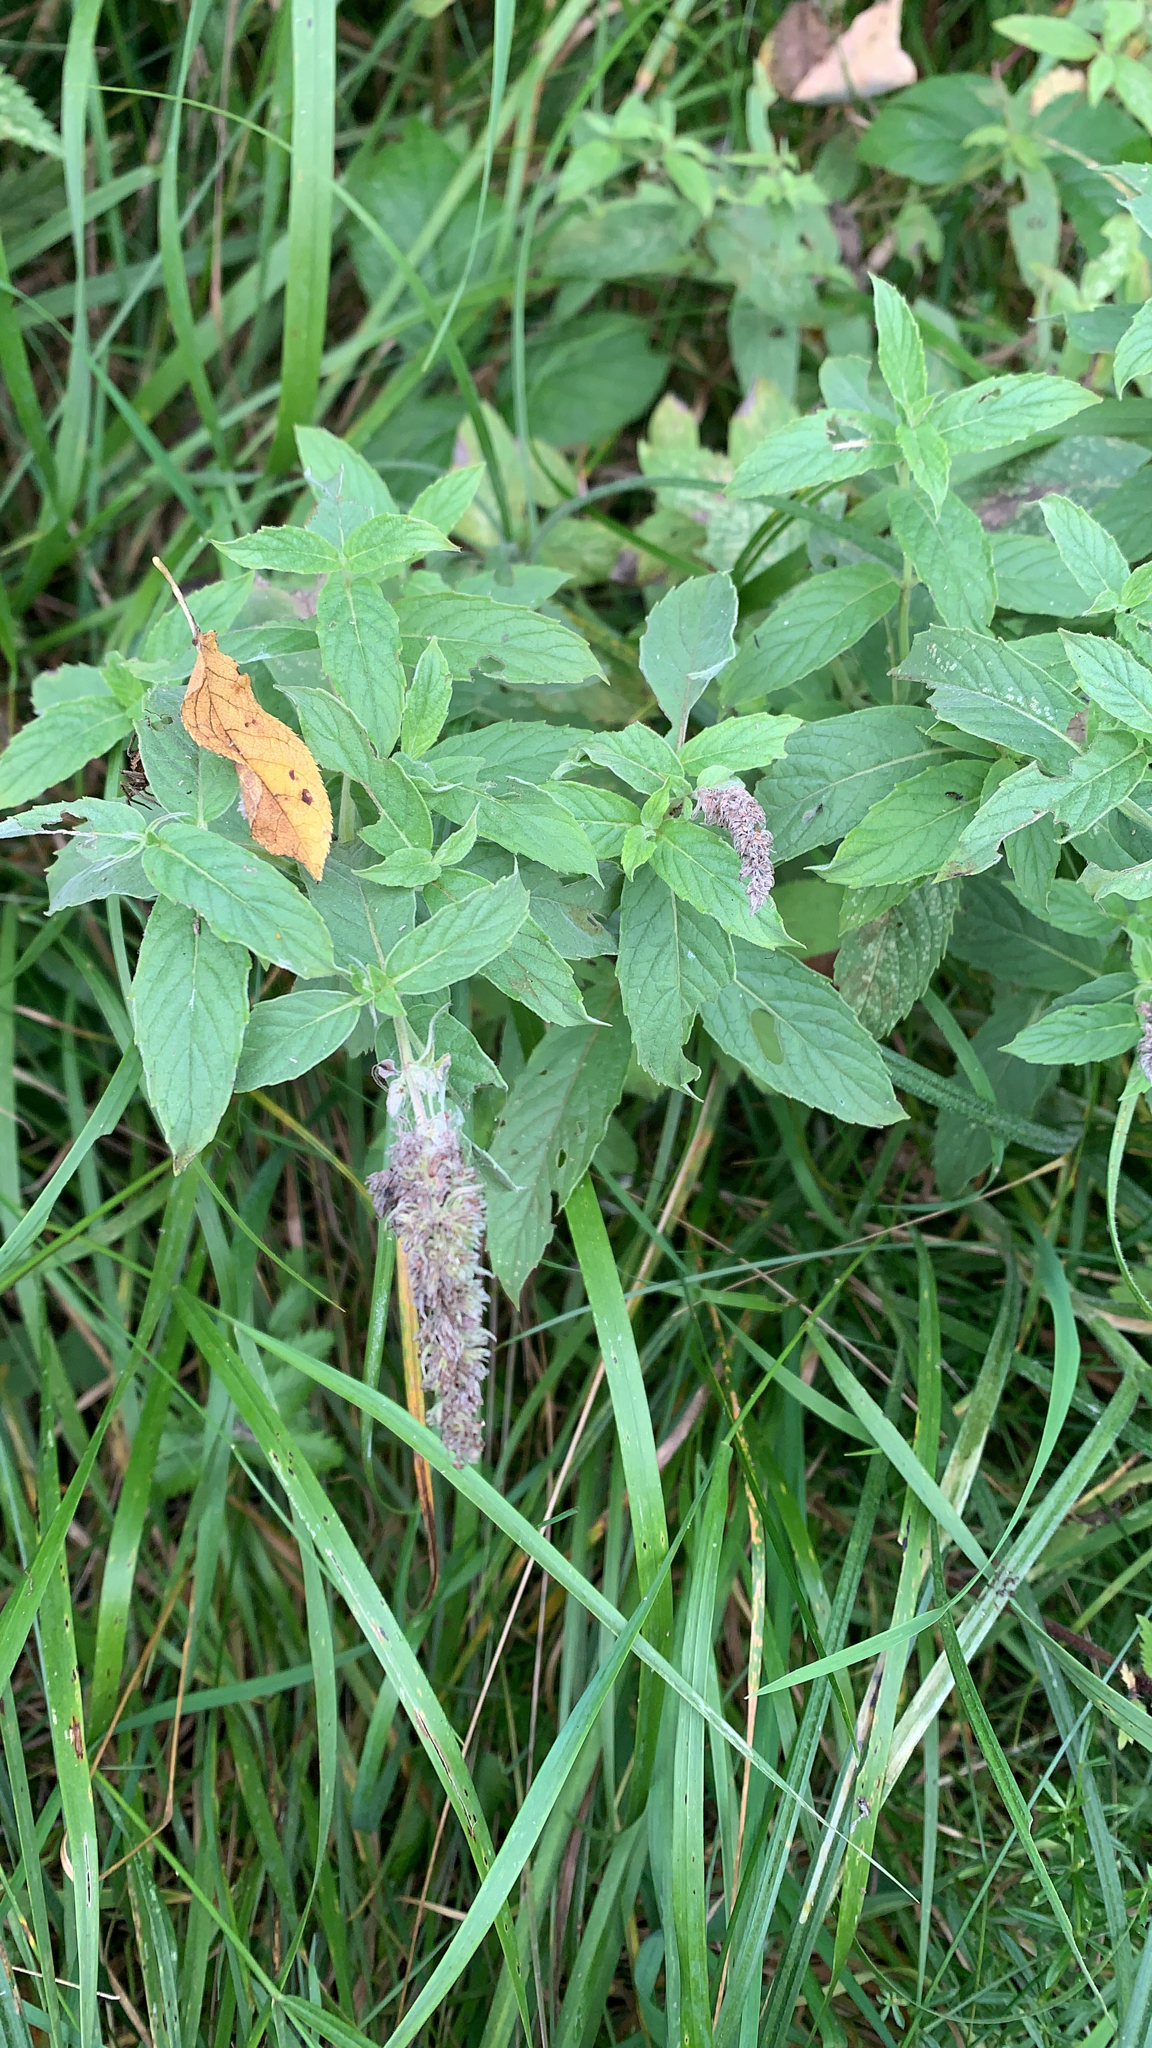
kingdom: Plantae
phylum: Tracheophyta
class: Magnoliopsida
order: Lamiales
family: Lamiaceae
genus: Mentha
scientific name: Mentha longifolia
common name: Horse mint
